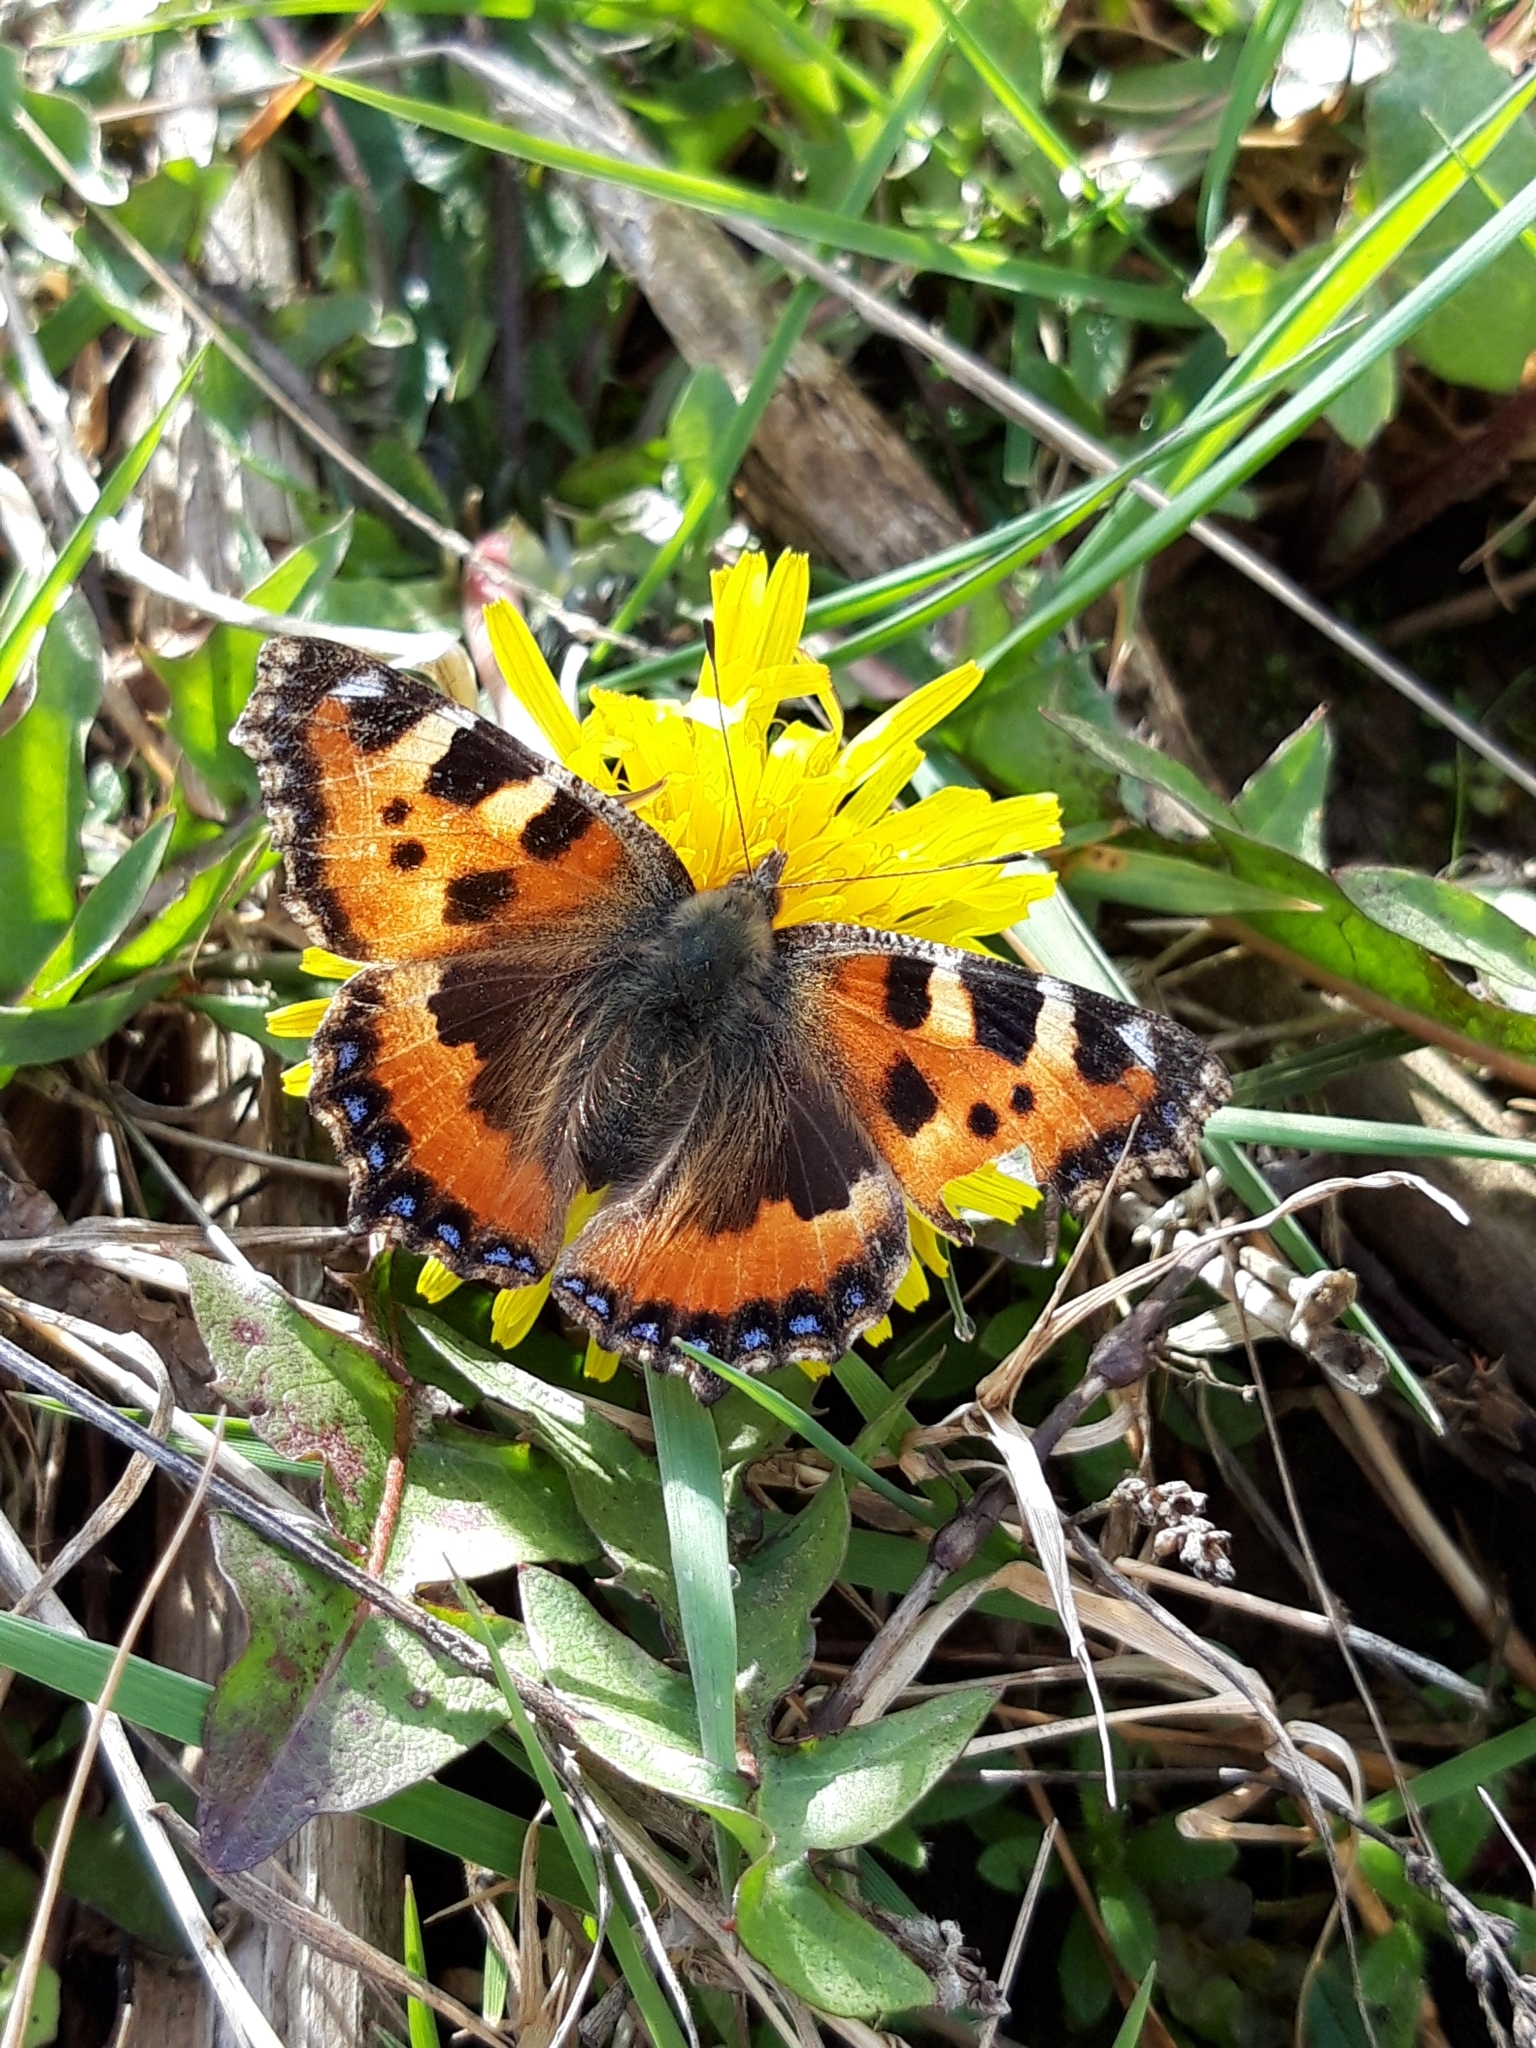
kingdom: Animalia
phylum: Arthropoda
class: Insecta
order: Lepidoptera
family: Nymphalidae
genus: Aglais
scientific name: Aglais urticae
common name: Small tortoiseshell
